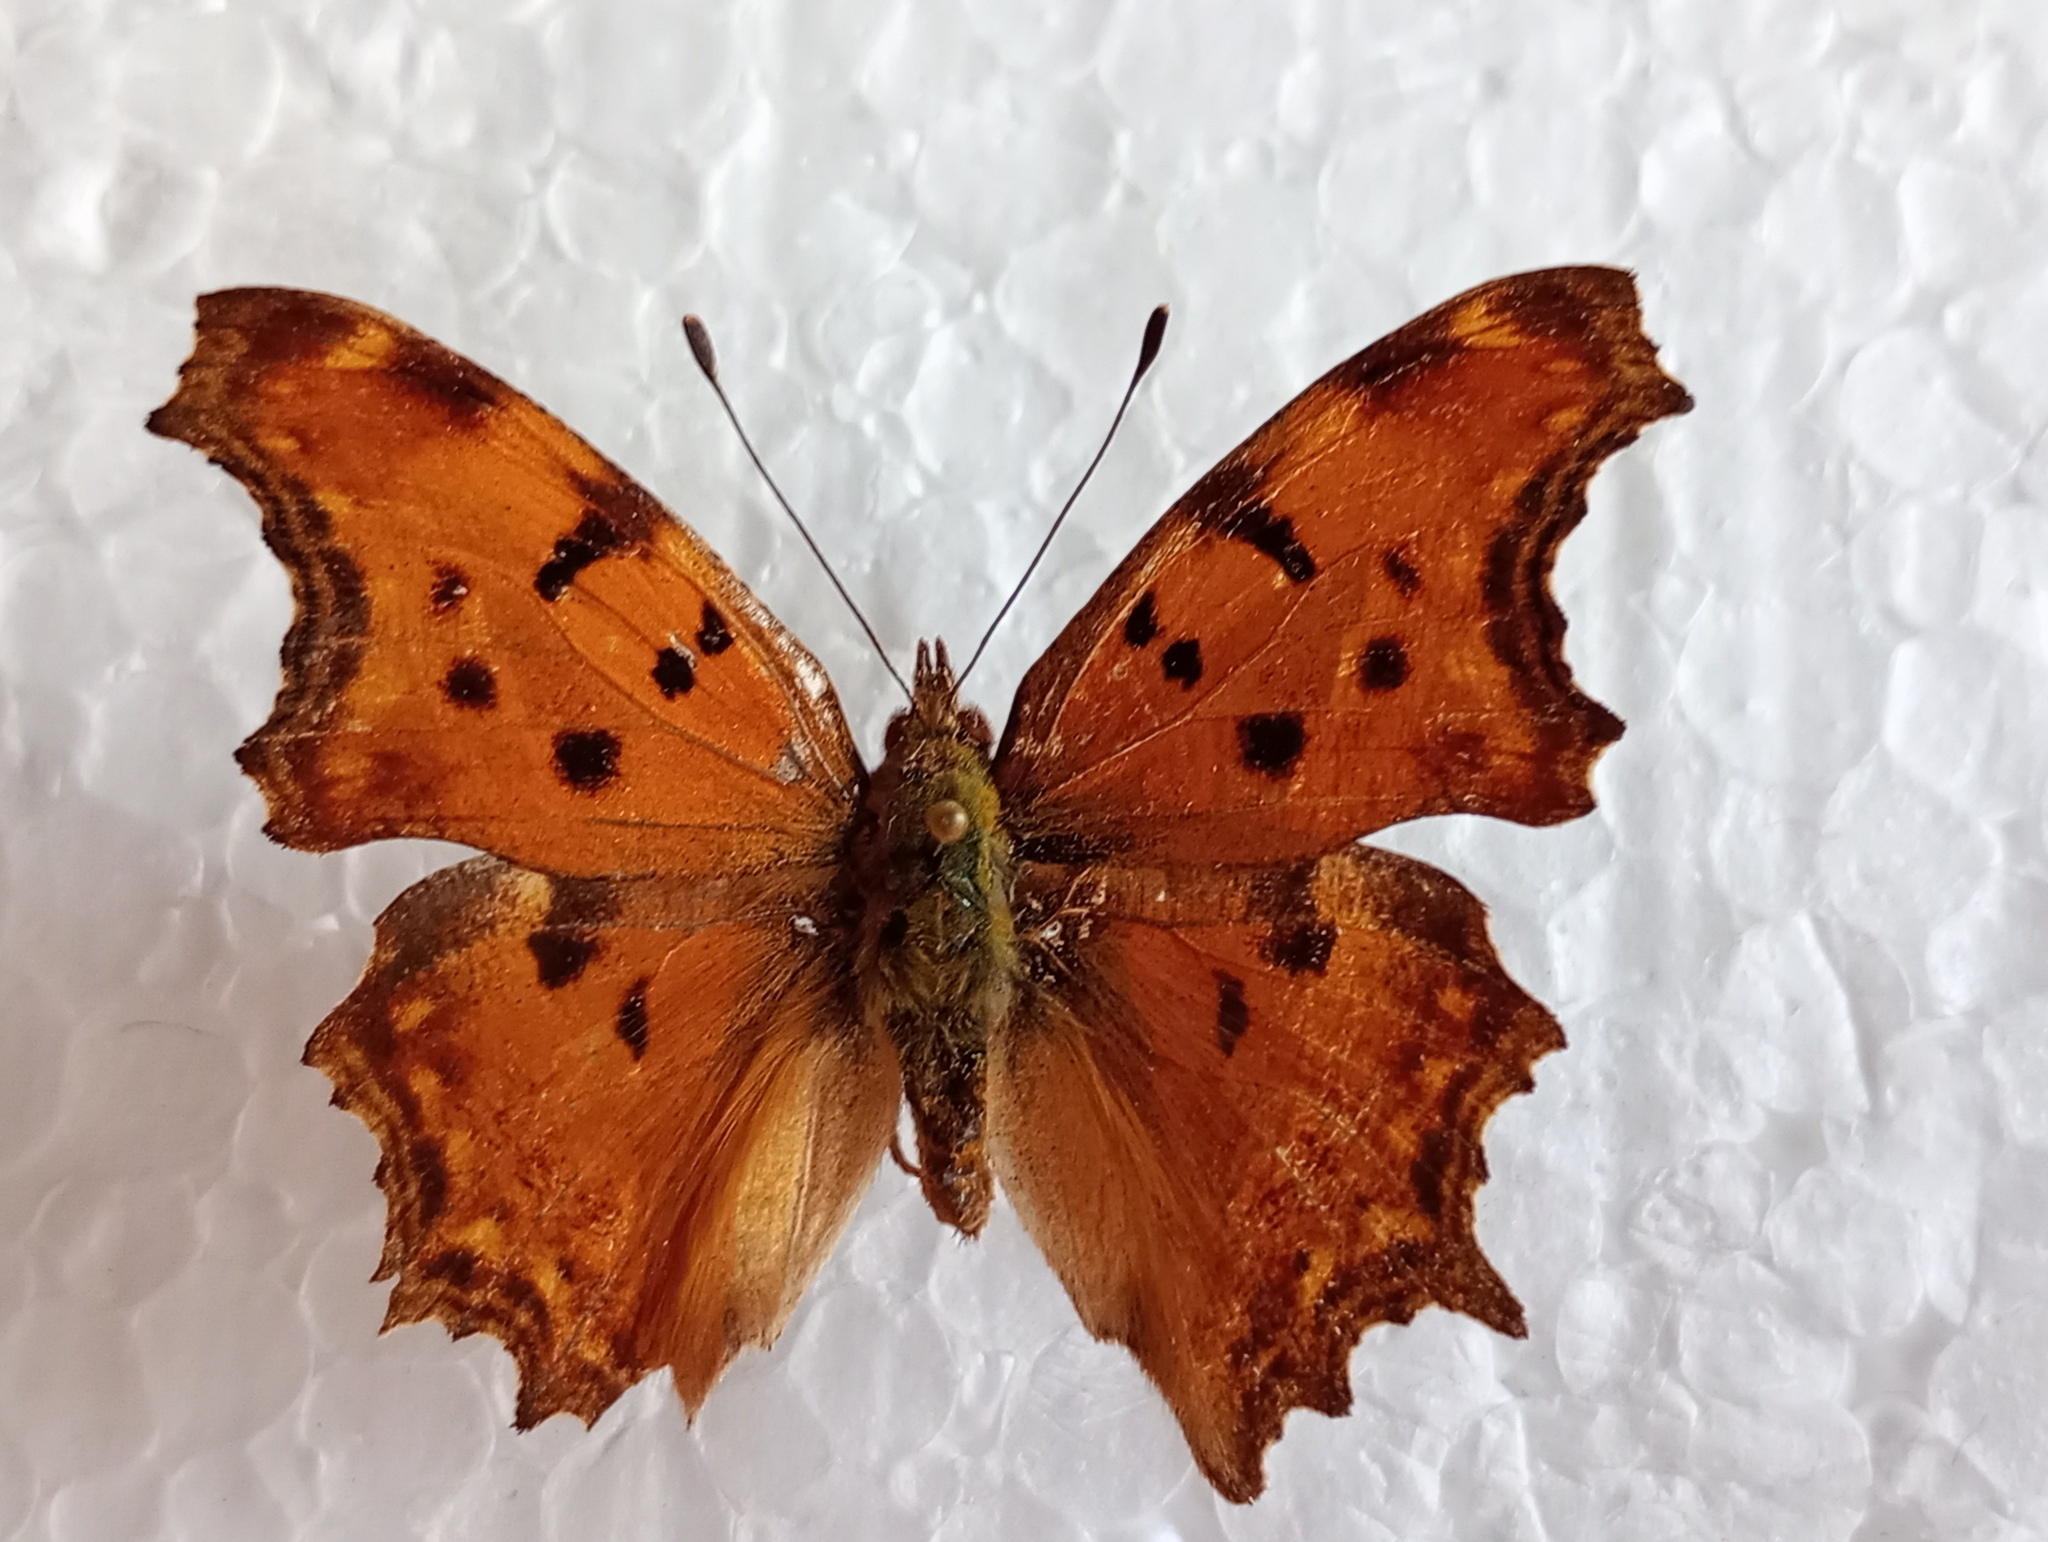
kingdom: Animalia
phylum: Arthropoda
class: Insecta
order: Lepidoptera
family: Nymphalidae
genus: Polygonia
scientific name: Polygonia egea
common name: Southern comma
